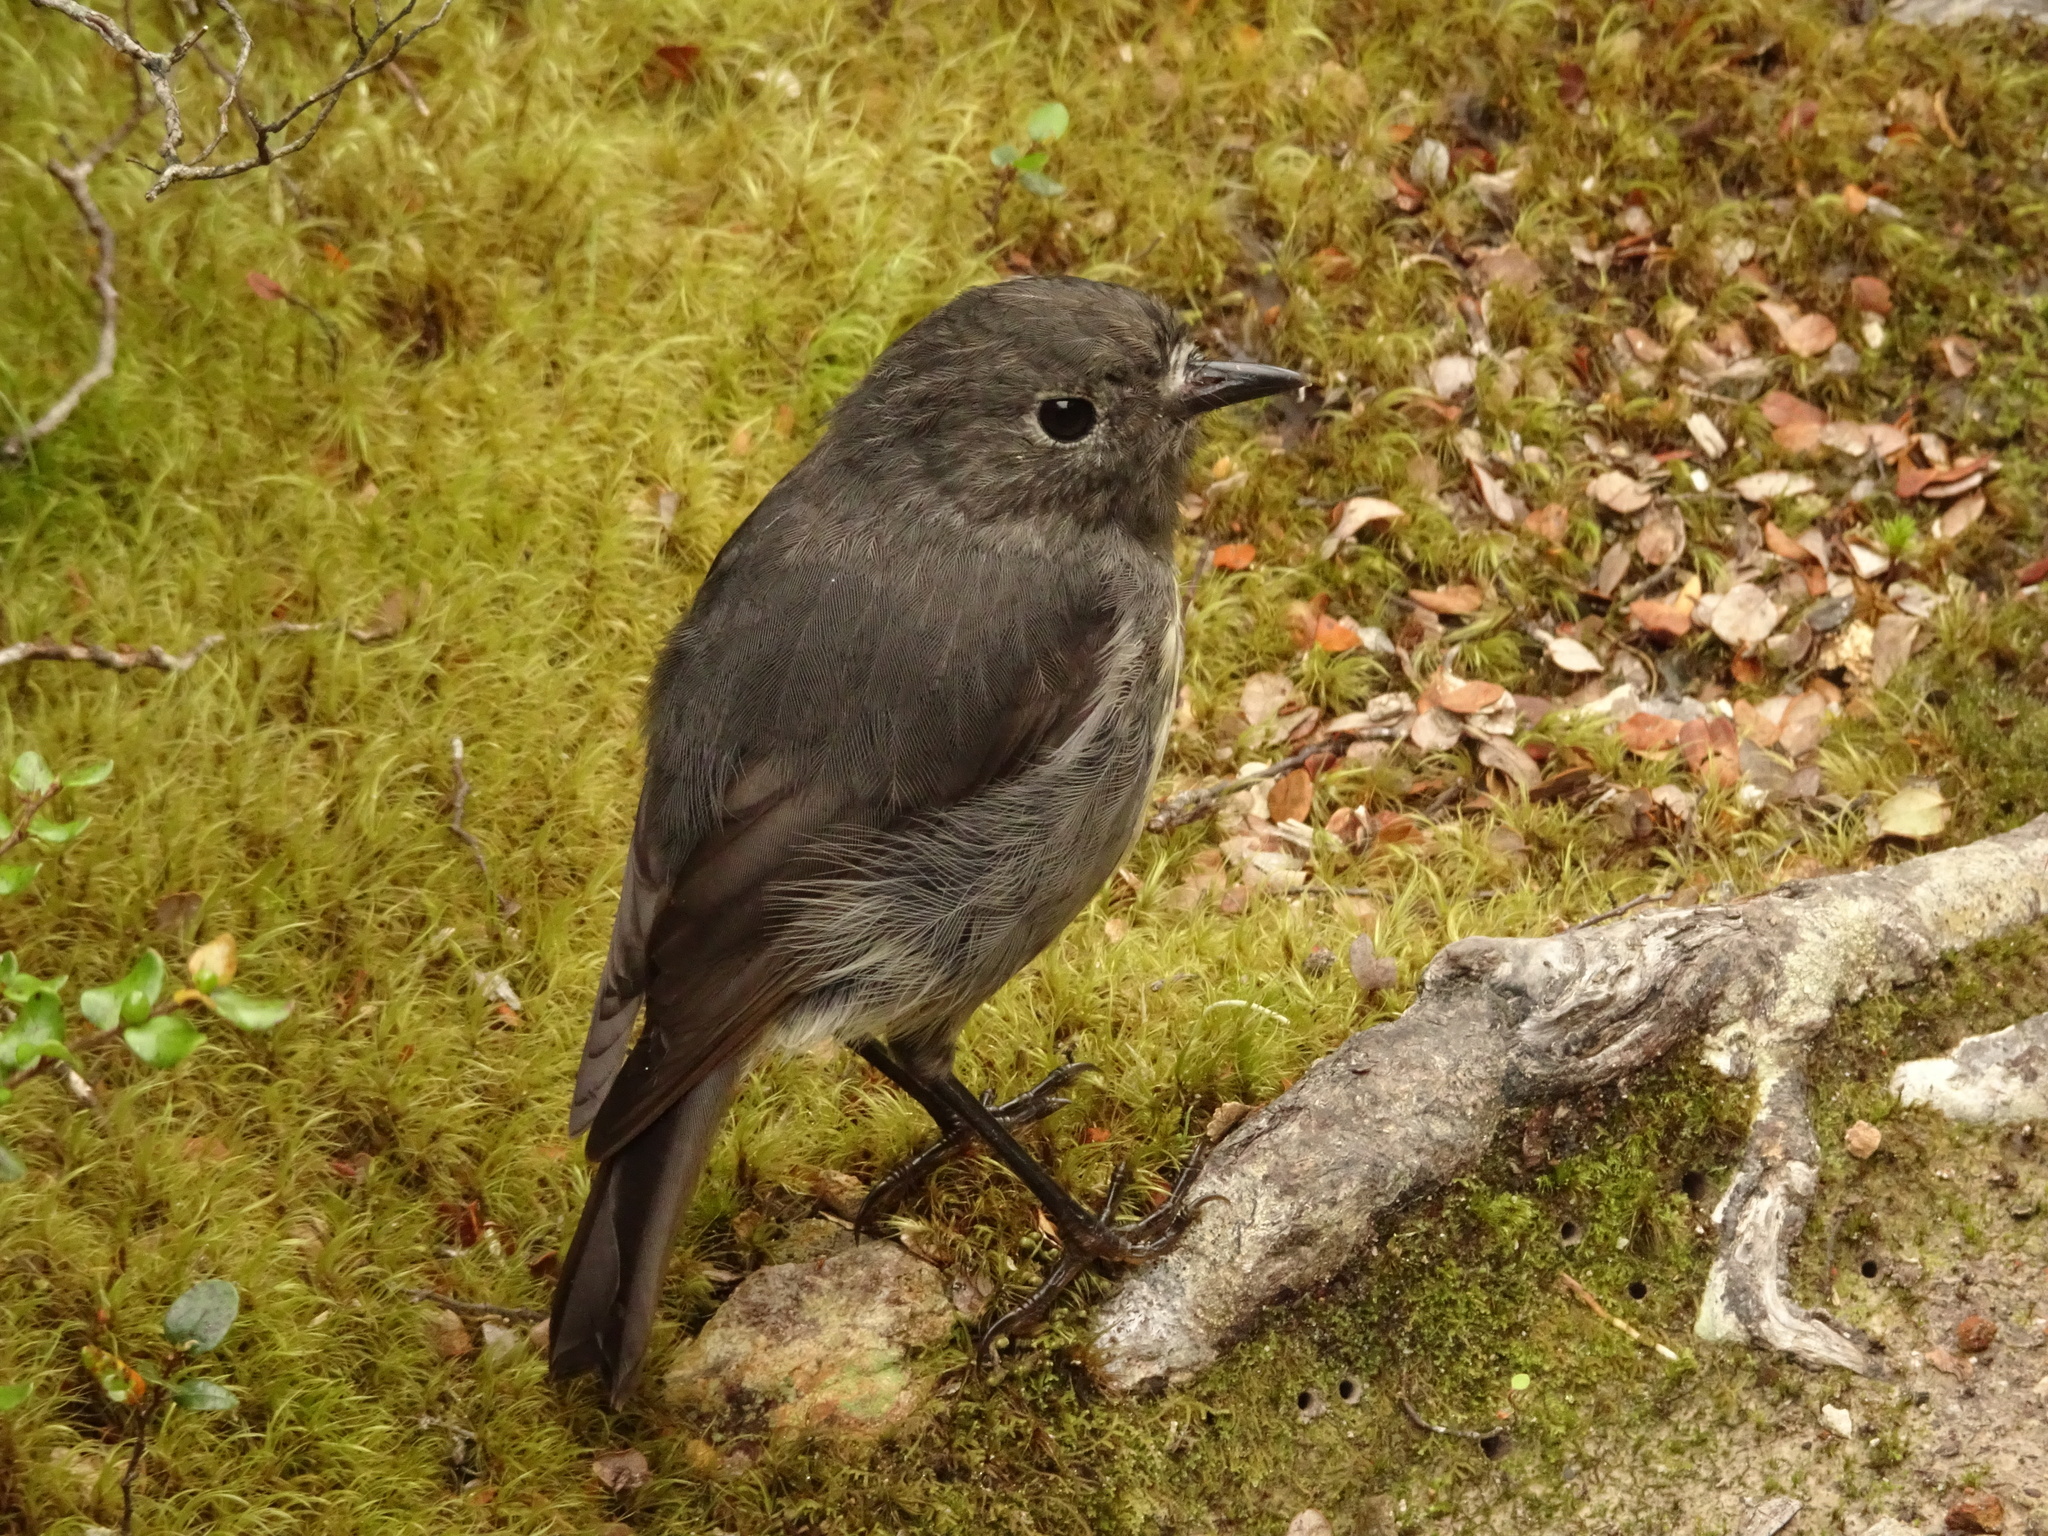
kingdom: Animalia
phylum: Chordata
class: Aves
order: Passeriformes
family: Petroicidae
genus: Petroica
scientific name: Petroica australis
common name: New zealand robin
